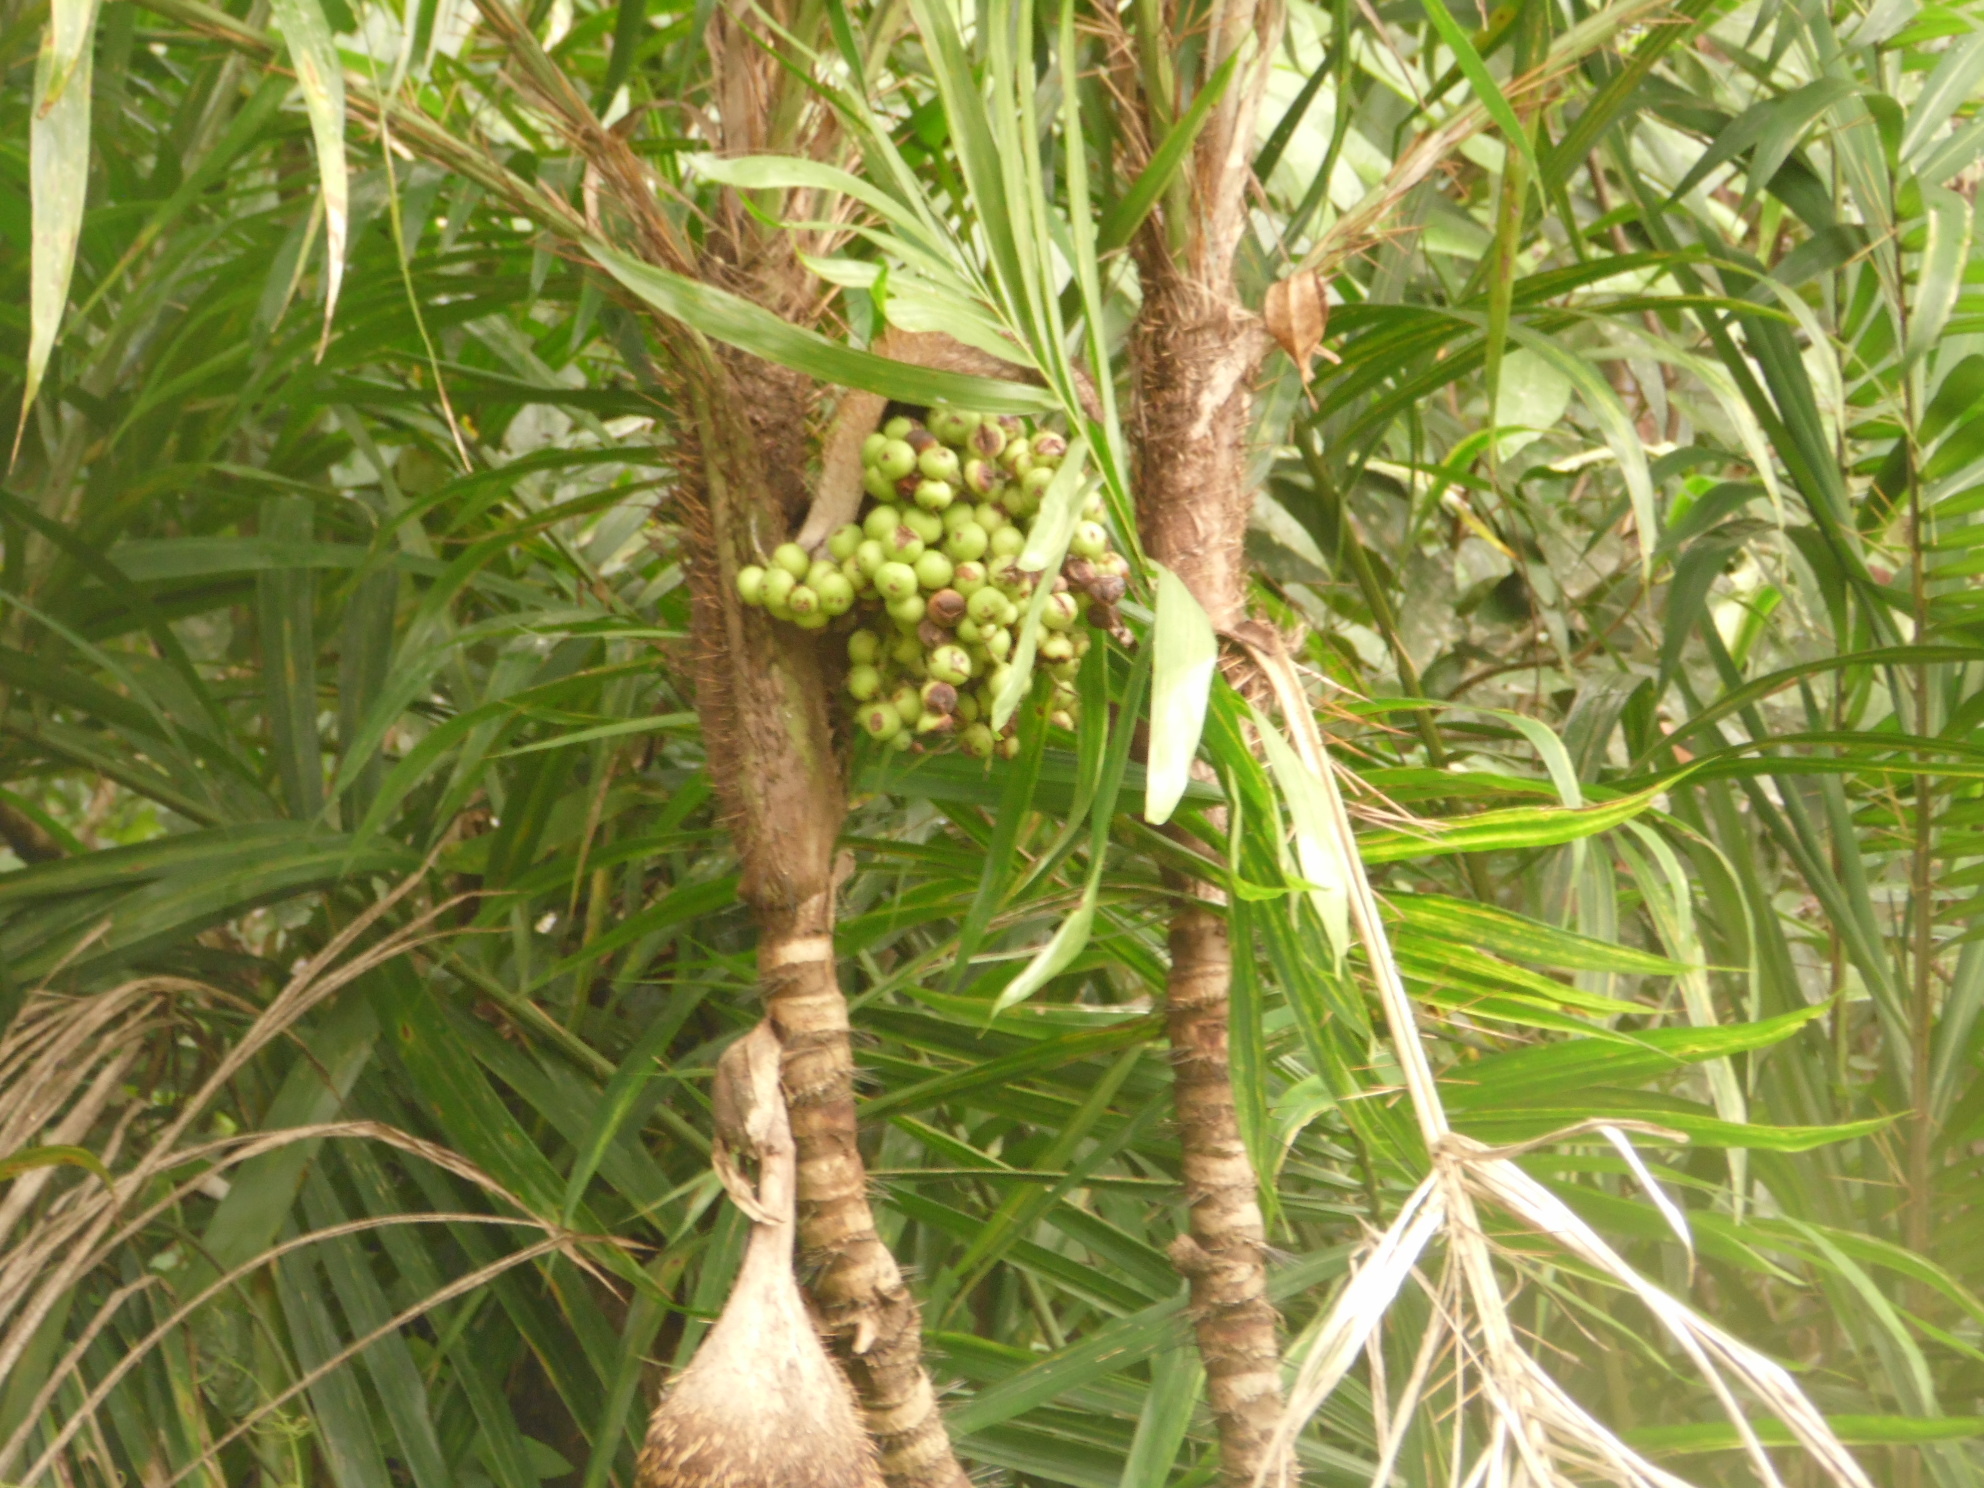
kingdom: Plantae
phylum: Tracheophyta
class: Liliopsida
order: Arecales
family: Arecaceae
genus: Bactris
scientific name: Bactris setosa
